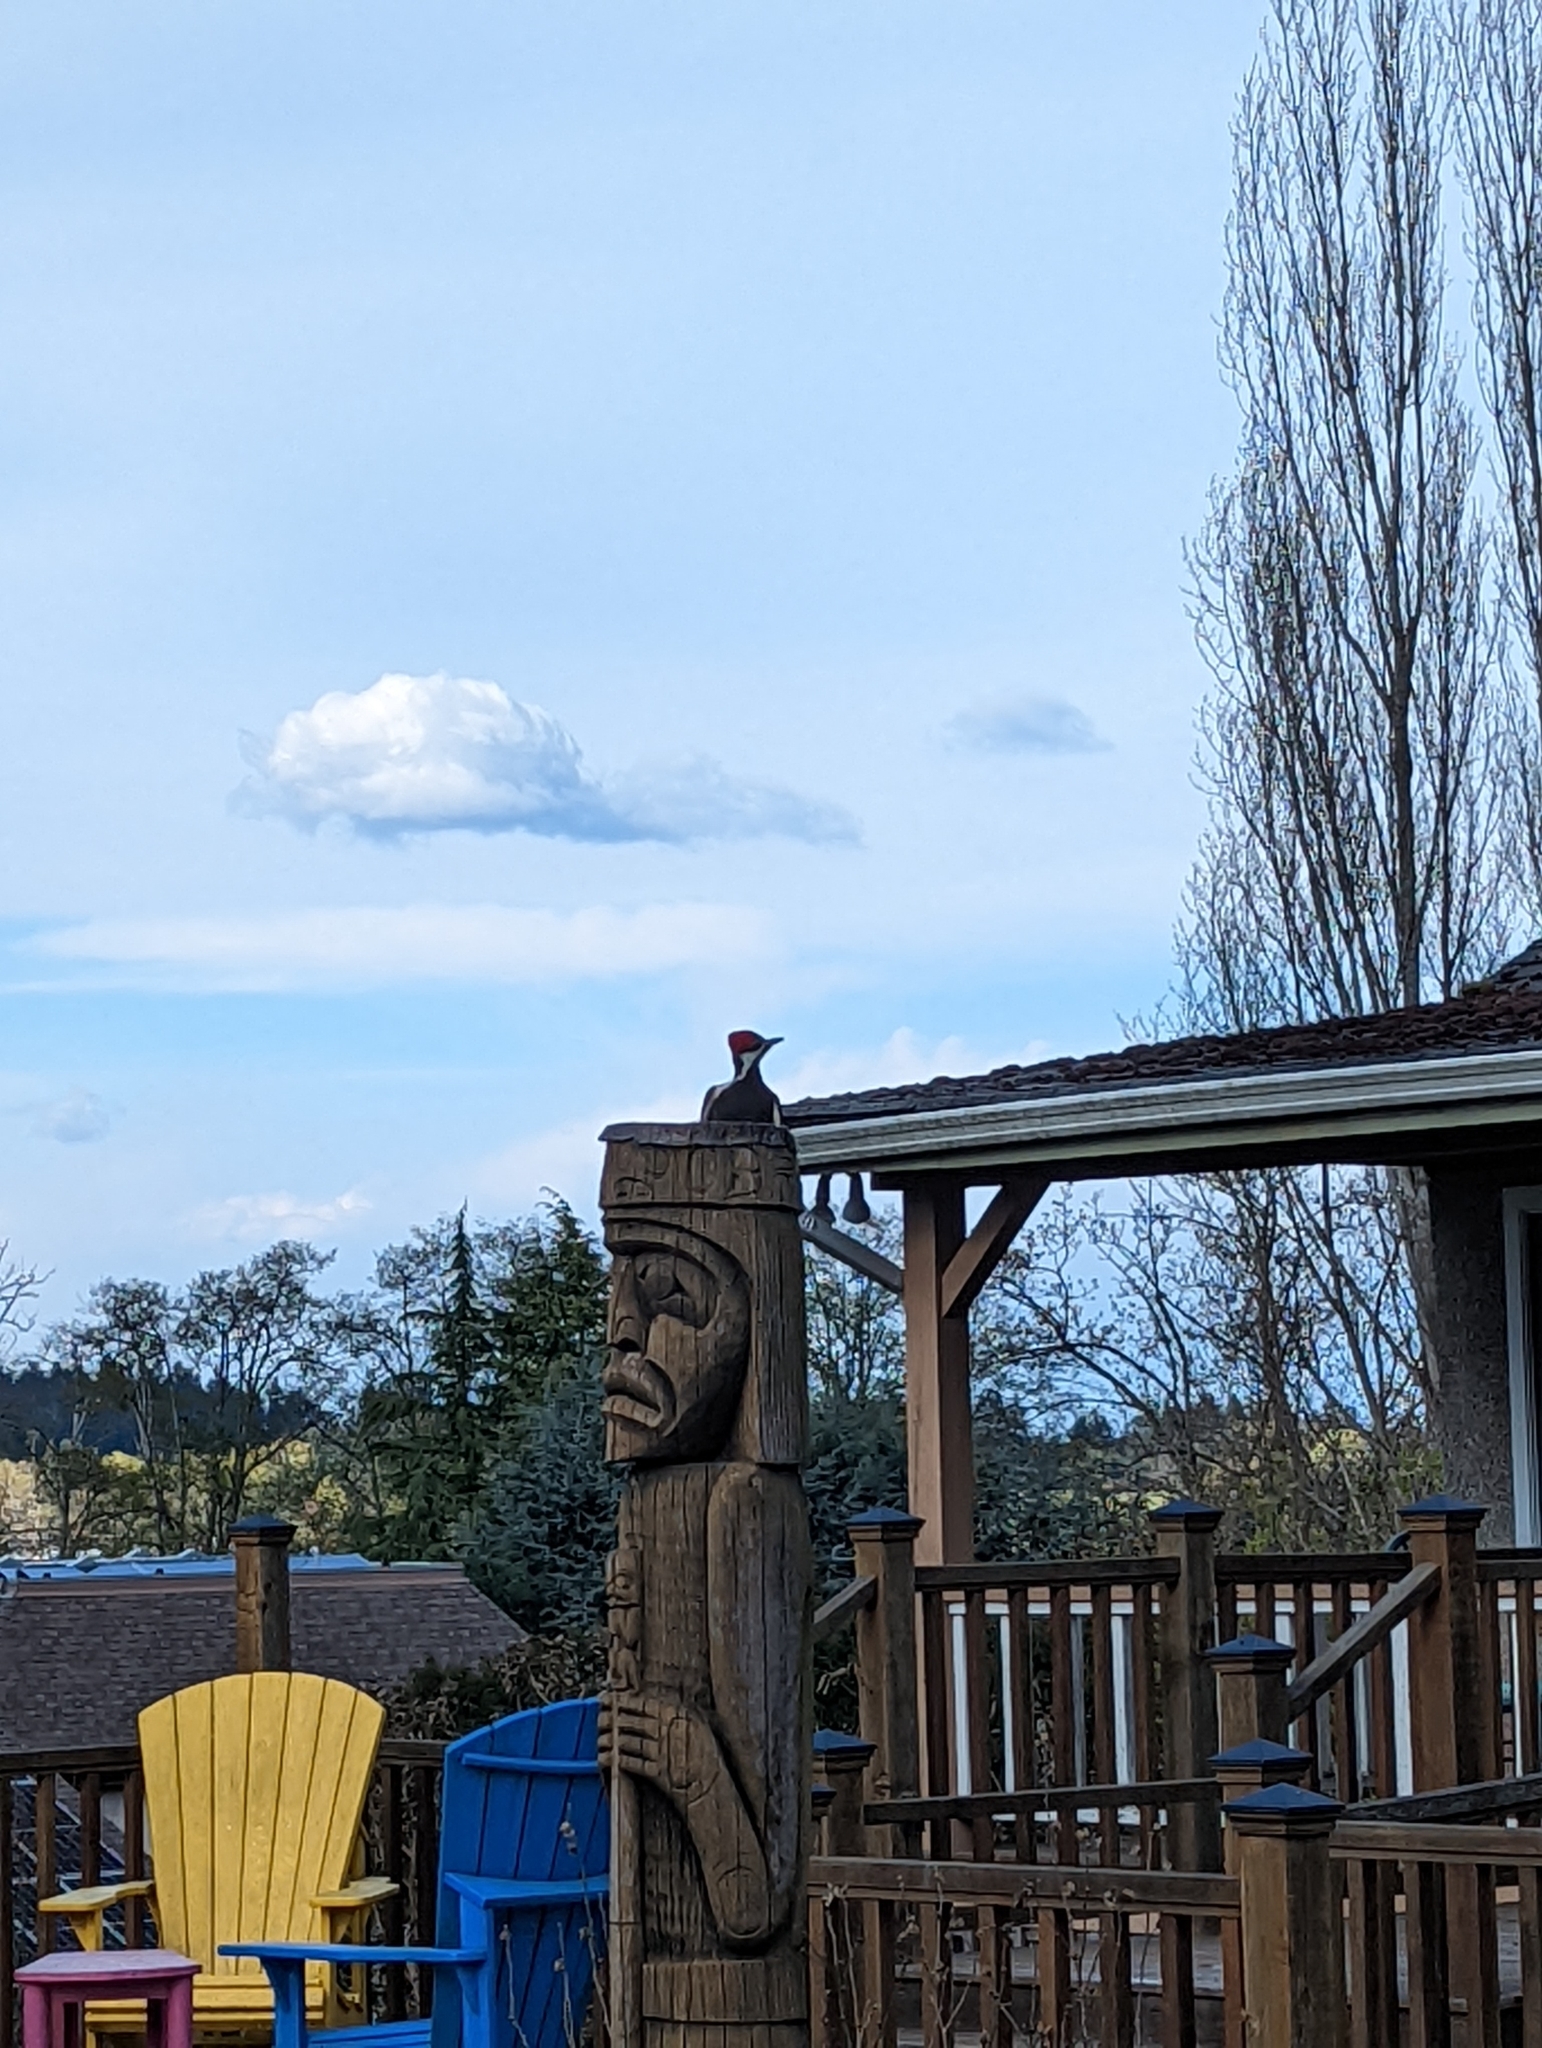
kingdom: Animalia
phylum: Chordata
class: Aves
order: Piciformes
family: Picidae
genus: Dryocopus
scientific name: Dryocopus pileatus
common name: Pileated woodpecker
